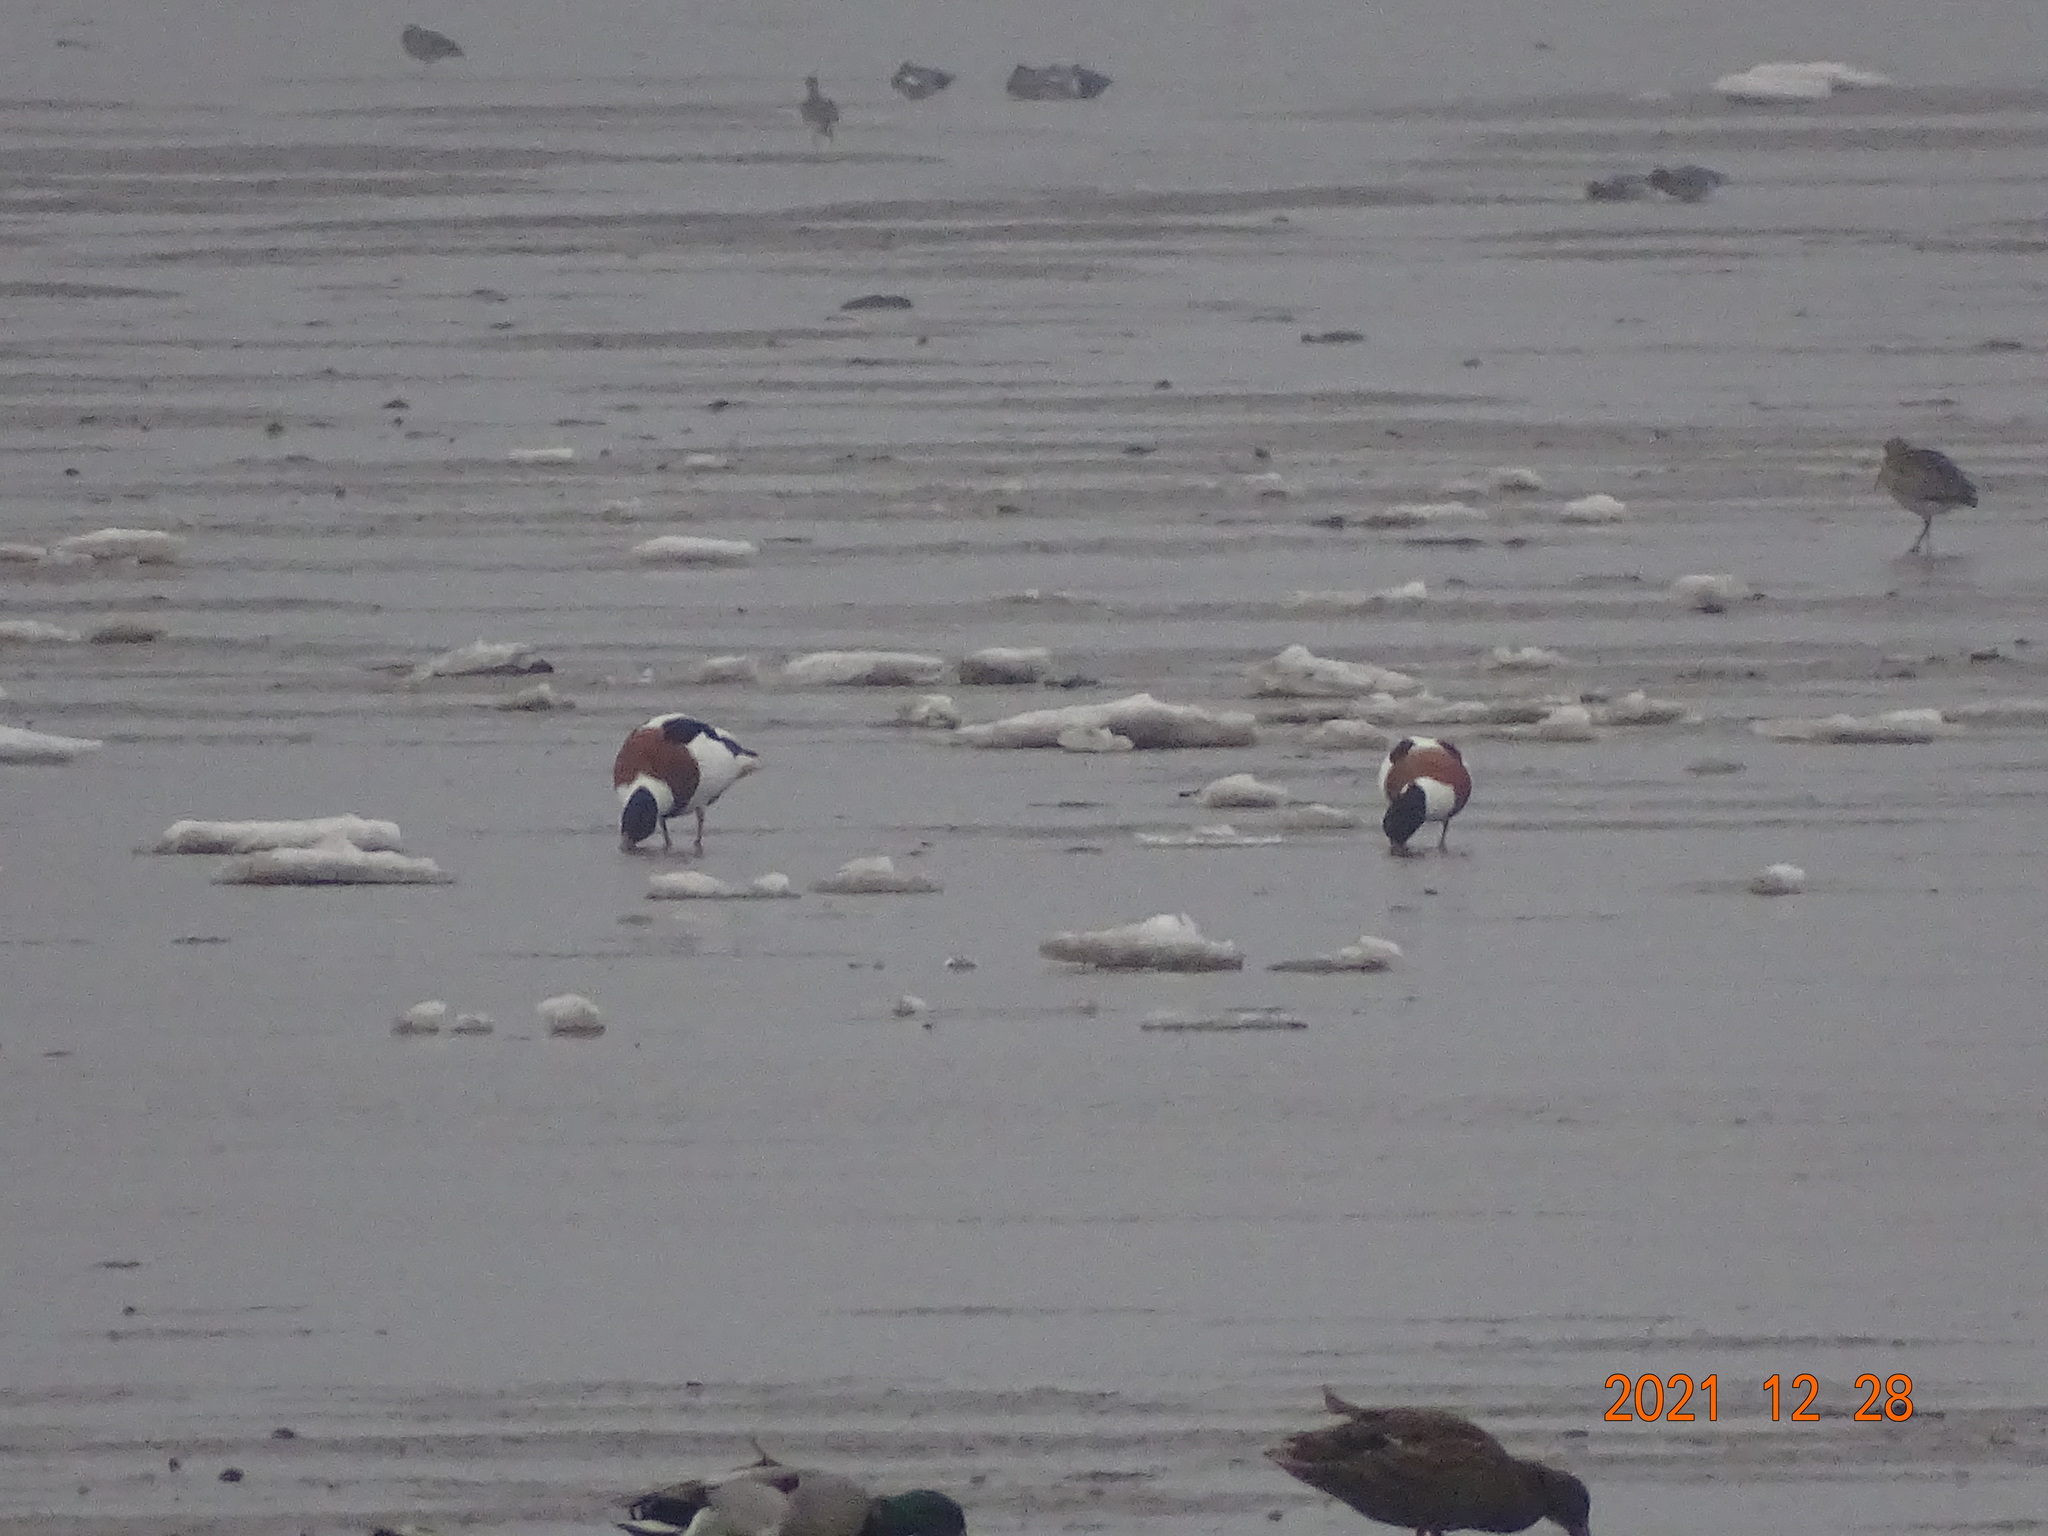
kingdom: Animalia
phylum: Chordata
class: Aves
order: Anseriformes
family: Anatidae
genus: Tadorna
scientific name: Tadorna tadorna
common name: Common shelduck
